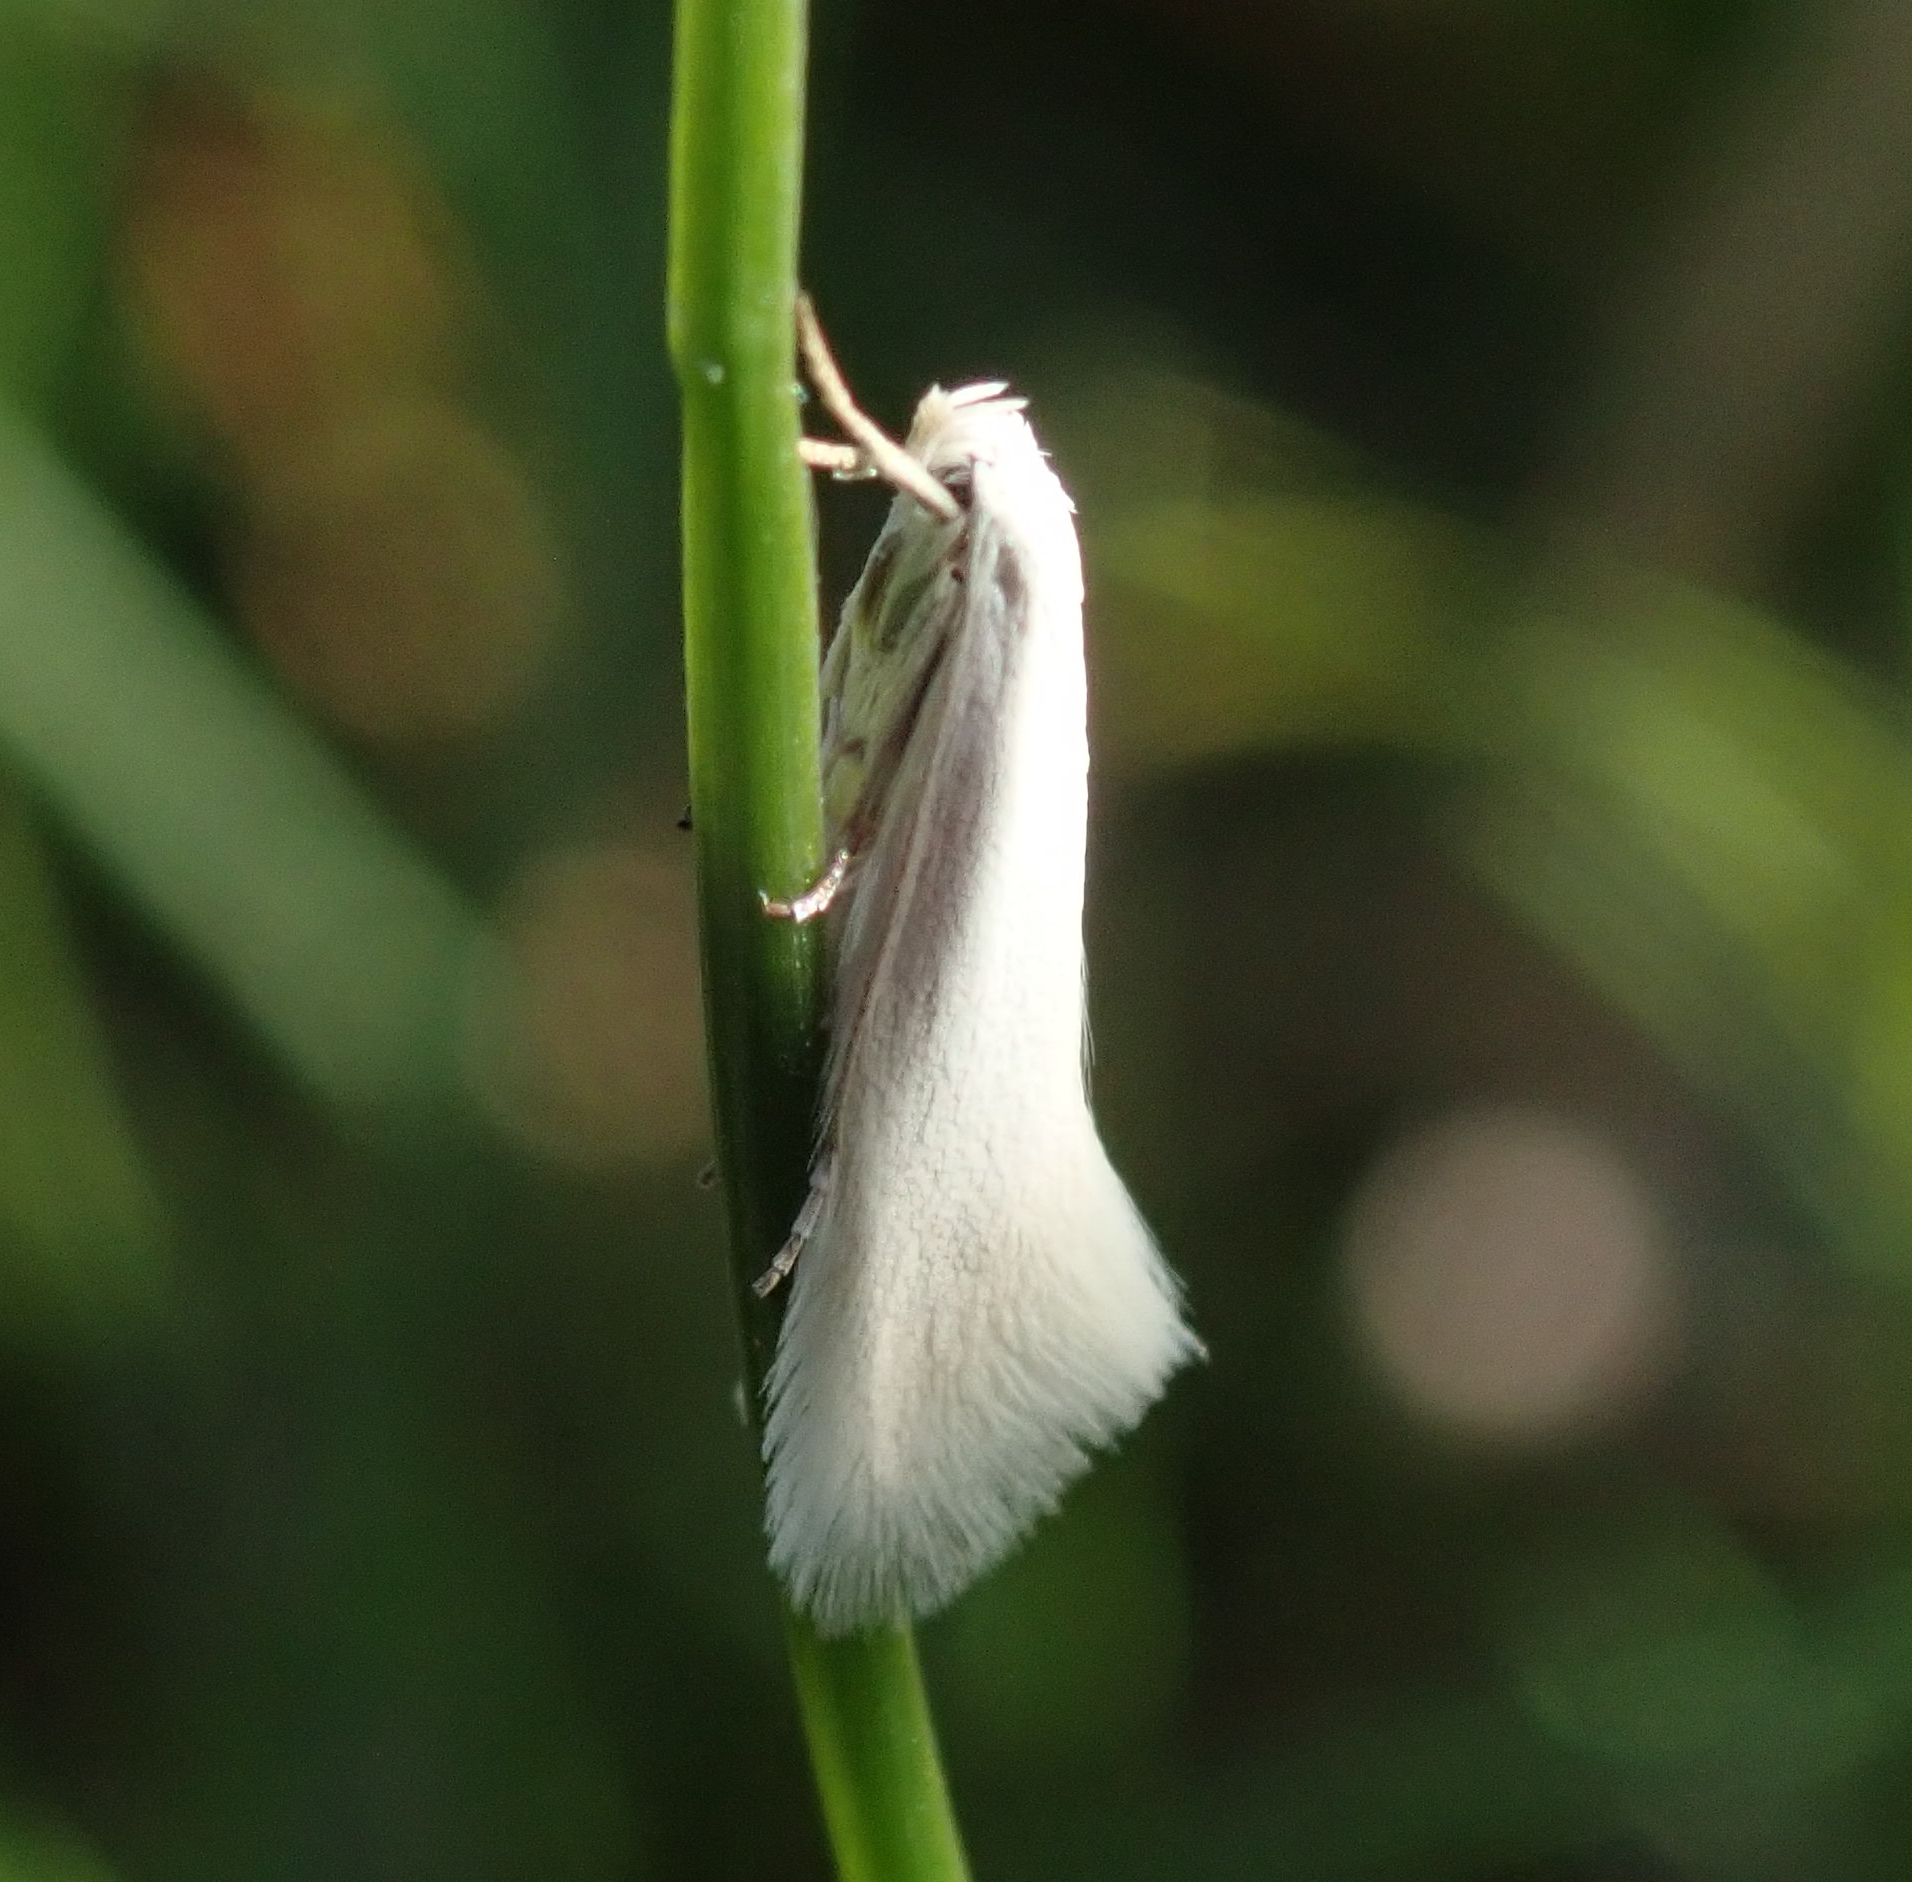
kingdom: Animalia
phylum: Arthropoda
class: Insecta
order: Lepidoptera
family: Elachistidae
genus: Elachista
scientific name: Elachista argentella
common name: Swan-feather dwarf
